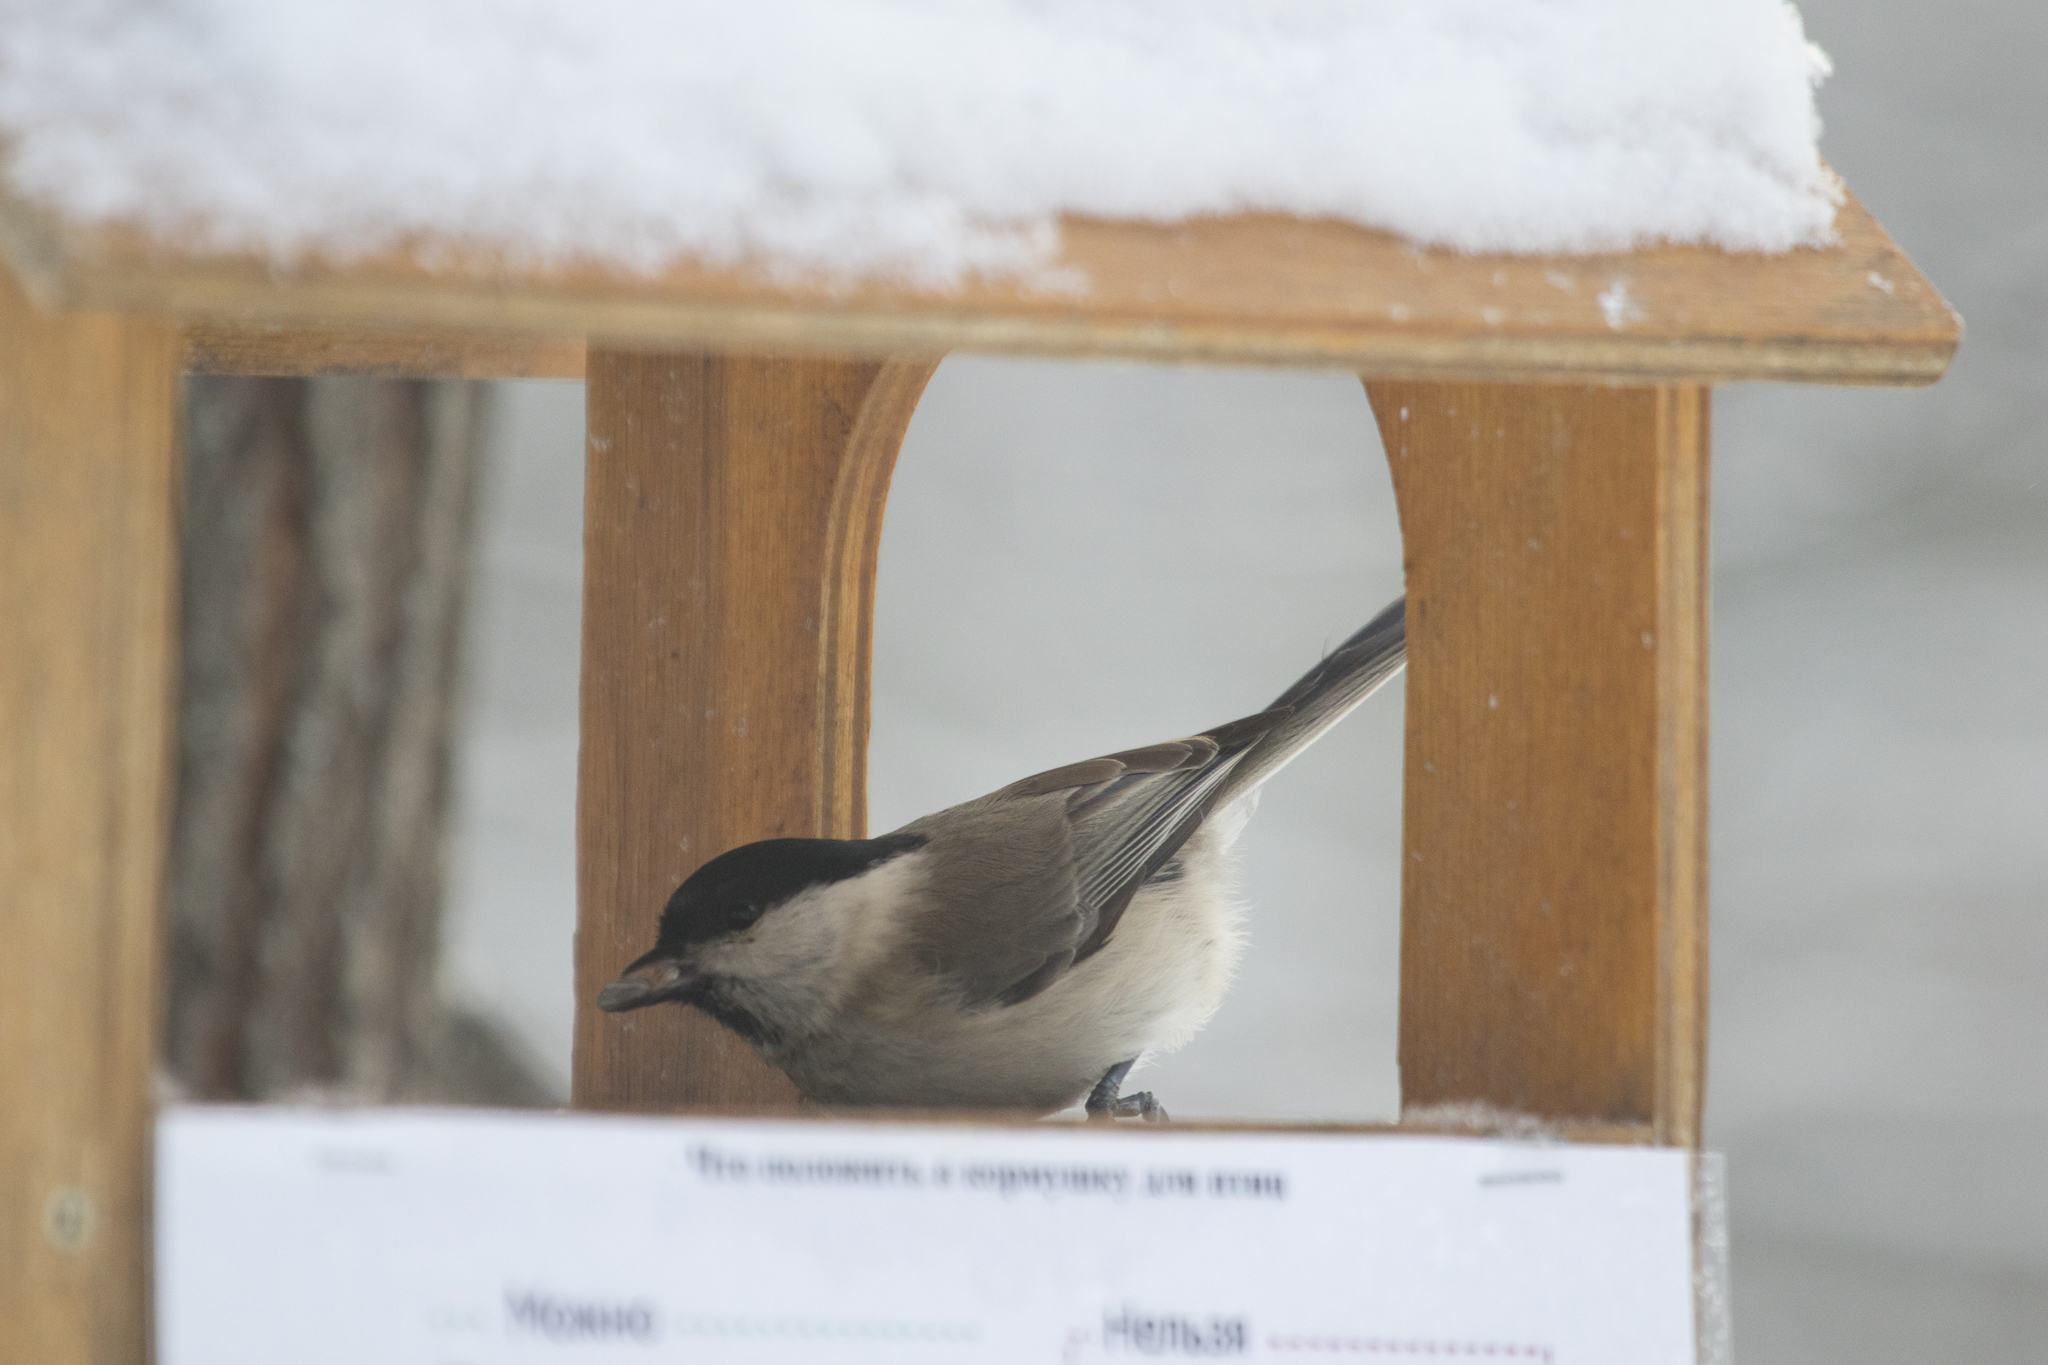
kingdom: Animalia
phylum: Chordata
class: Aves
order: Passeriformes
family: Paridae
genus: Poecile
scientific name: Poecile palustris
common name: Marsh tit
